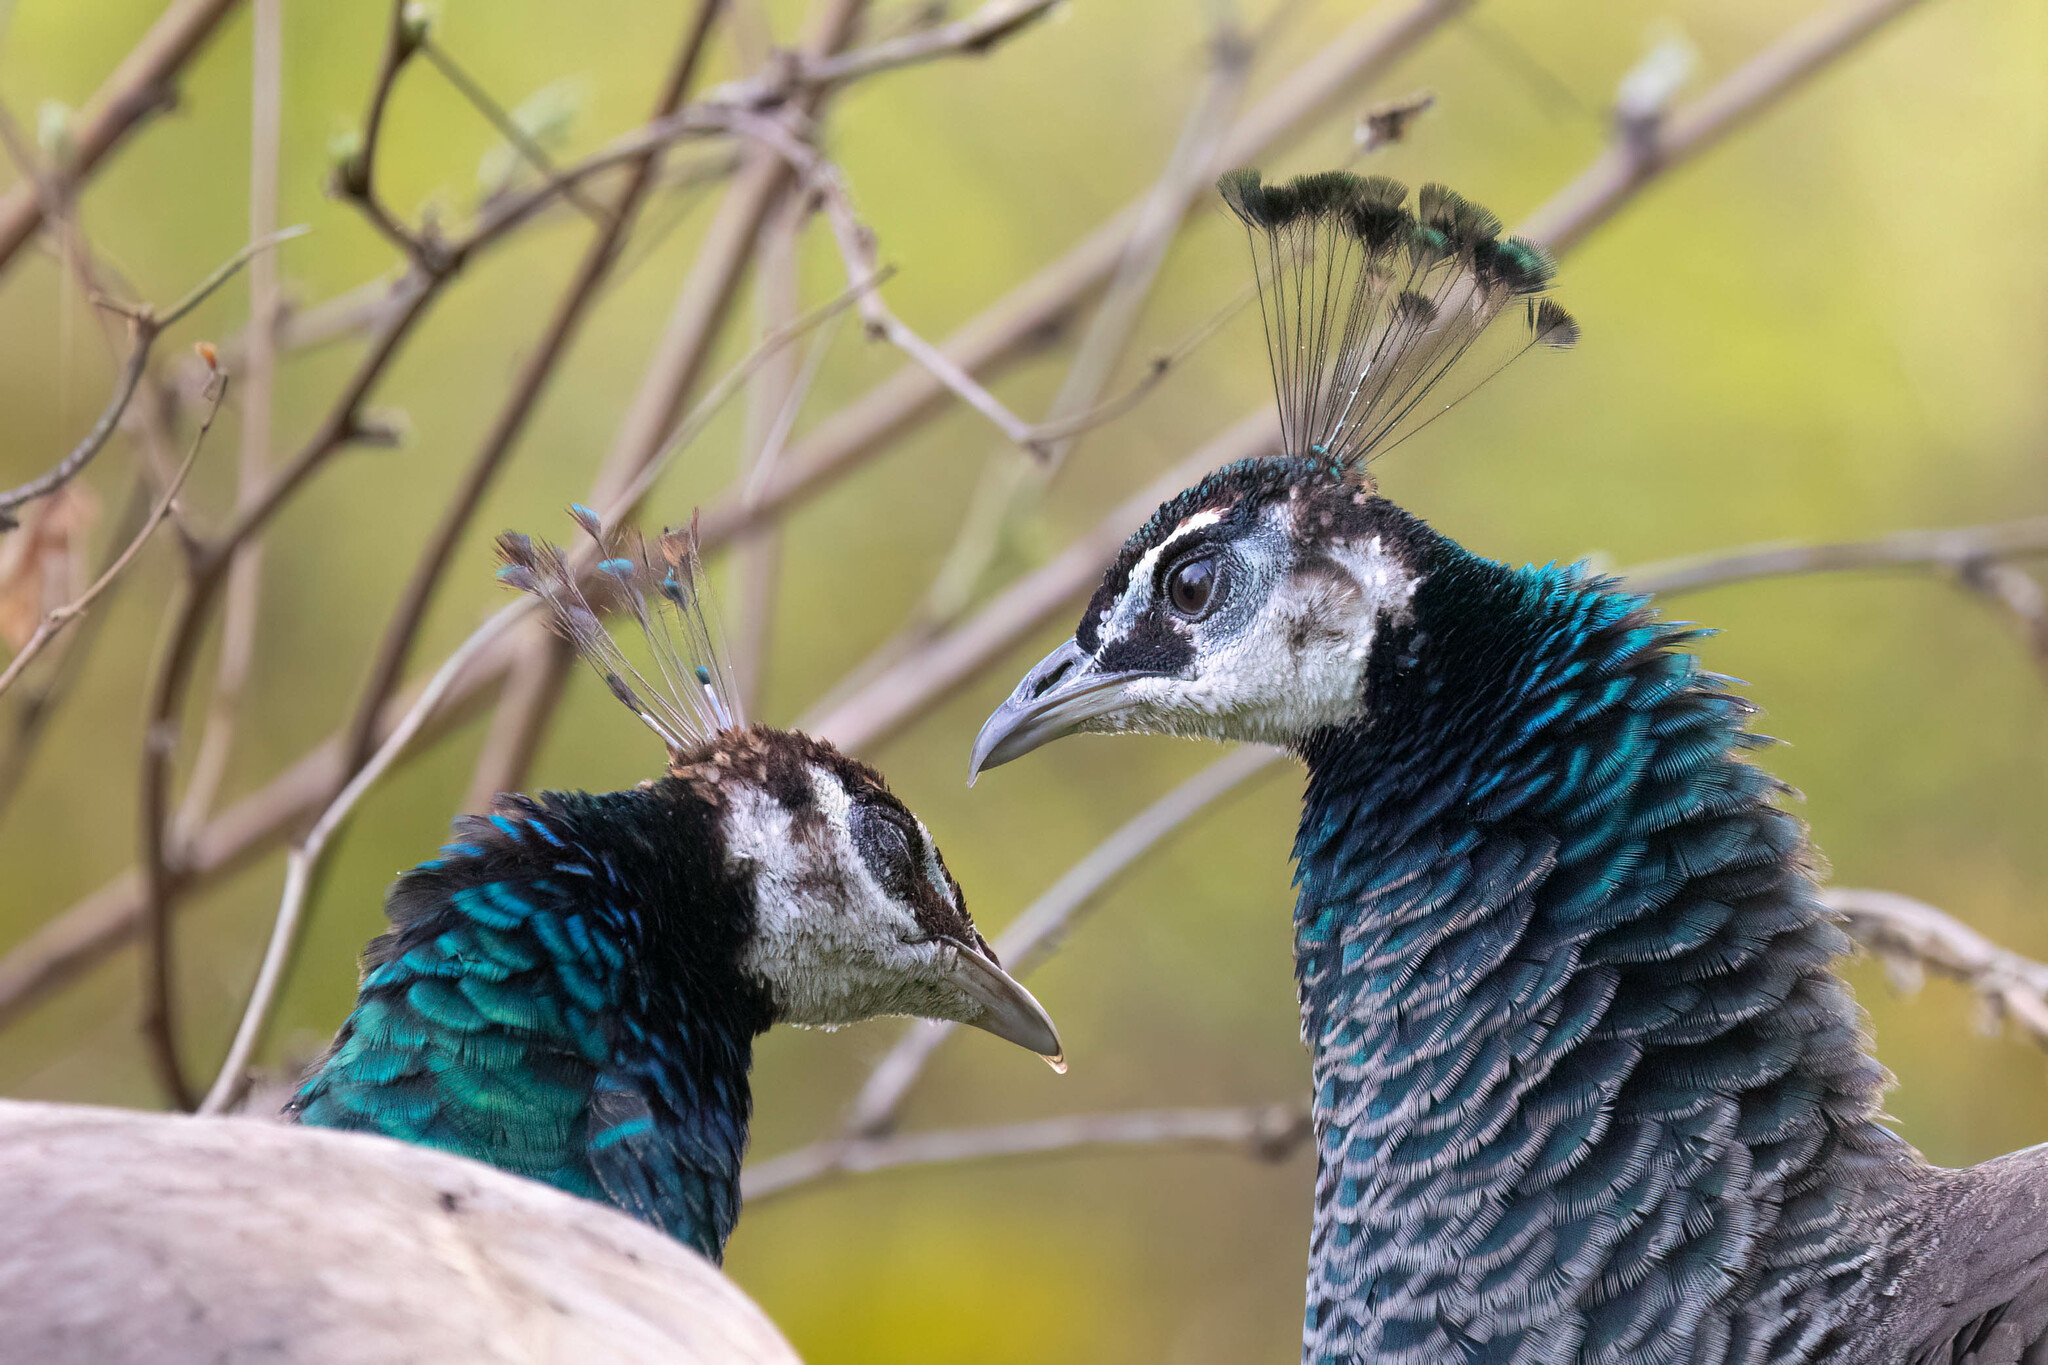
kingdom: Animalia
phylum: Chordata
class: Aves
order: Galliformes
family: Phasianidae
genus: Pavo
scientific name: Pavo cristatus
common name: Indian peafowl
